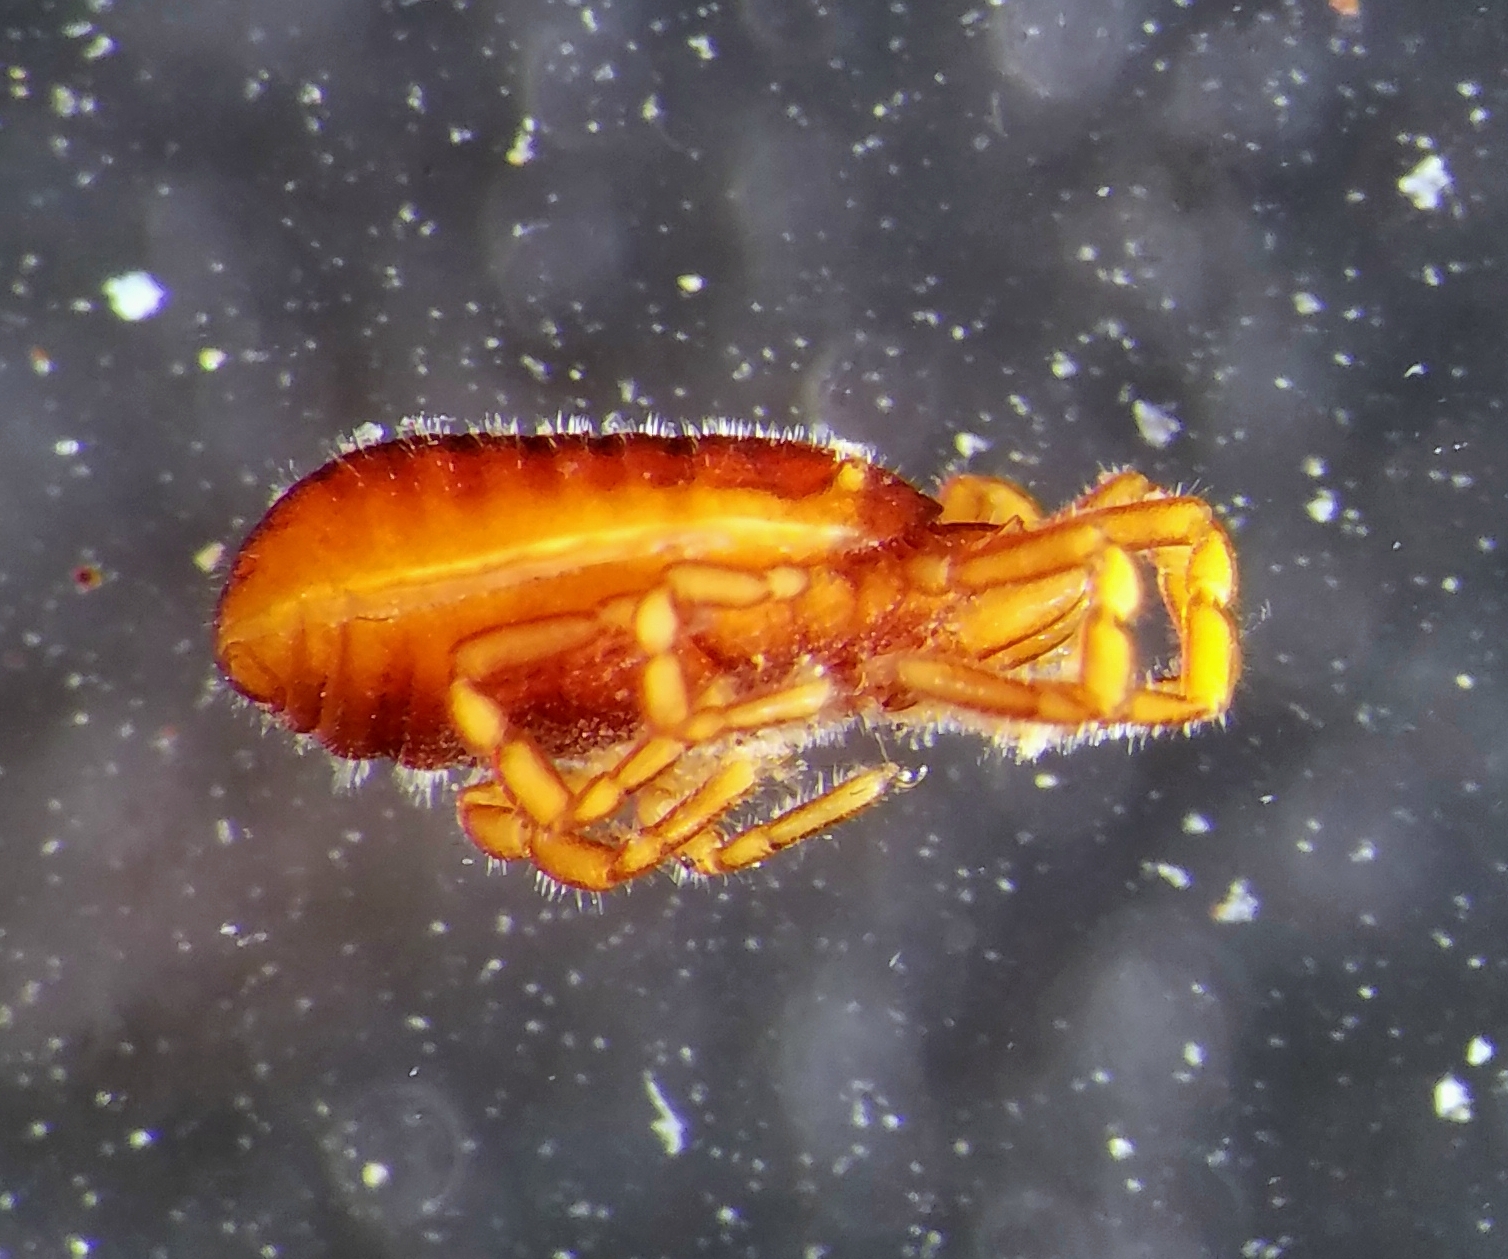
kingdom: Animalia
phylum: Arthropoda
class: Arachnida
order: Opiliones
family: Sironidae
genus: Neosiro
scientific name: Neosiro exilis
